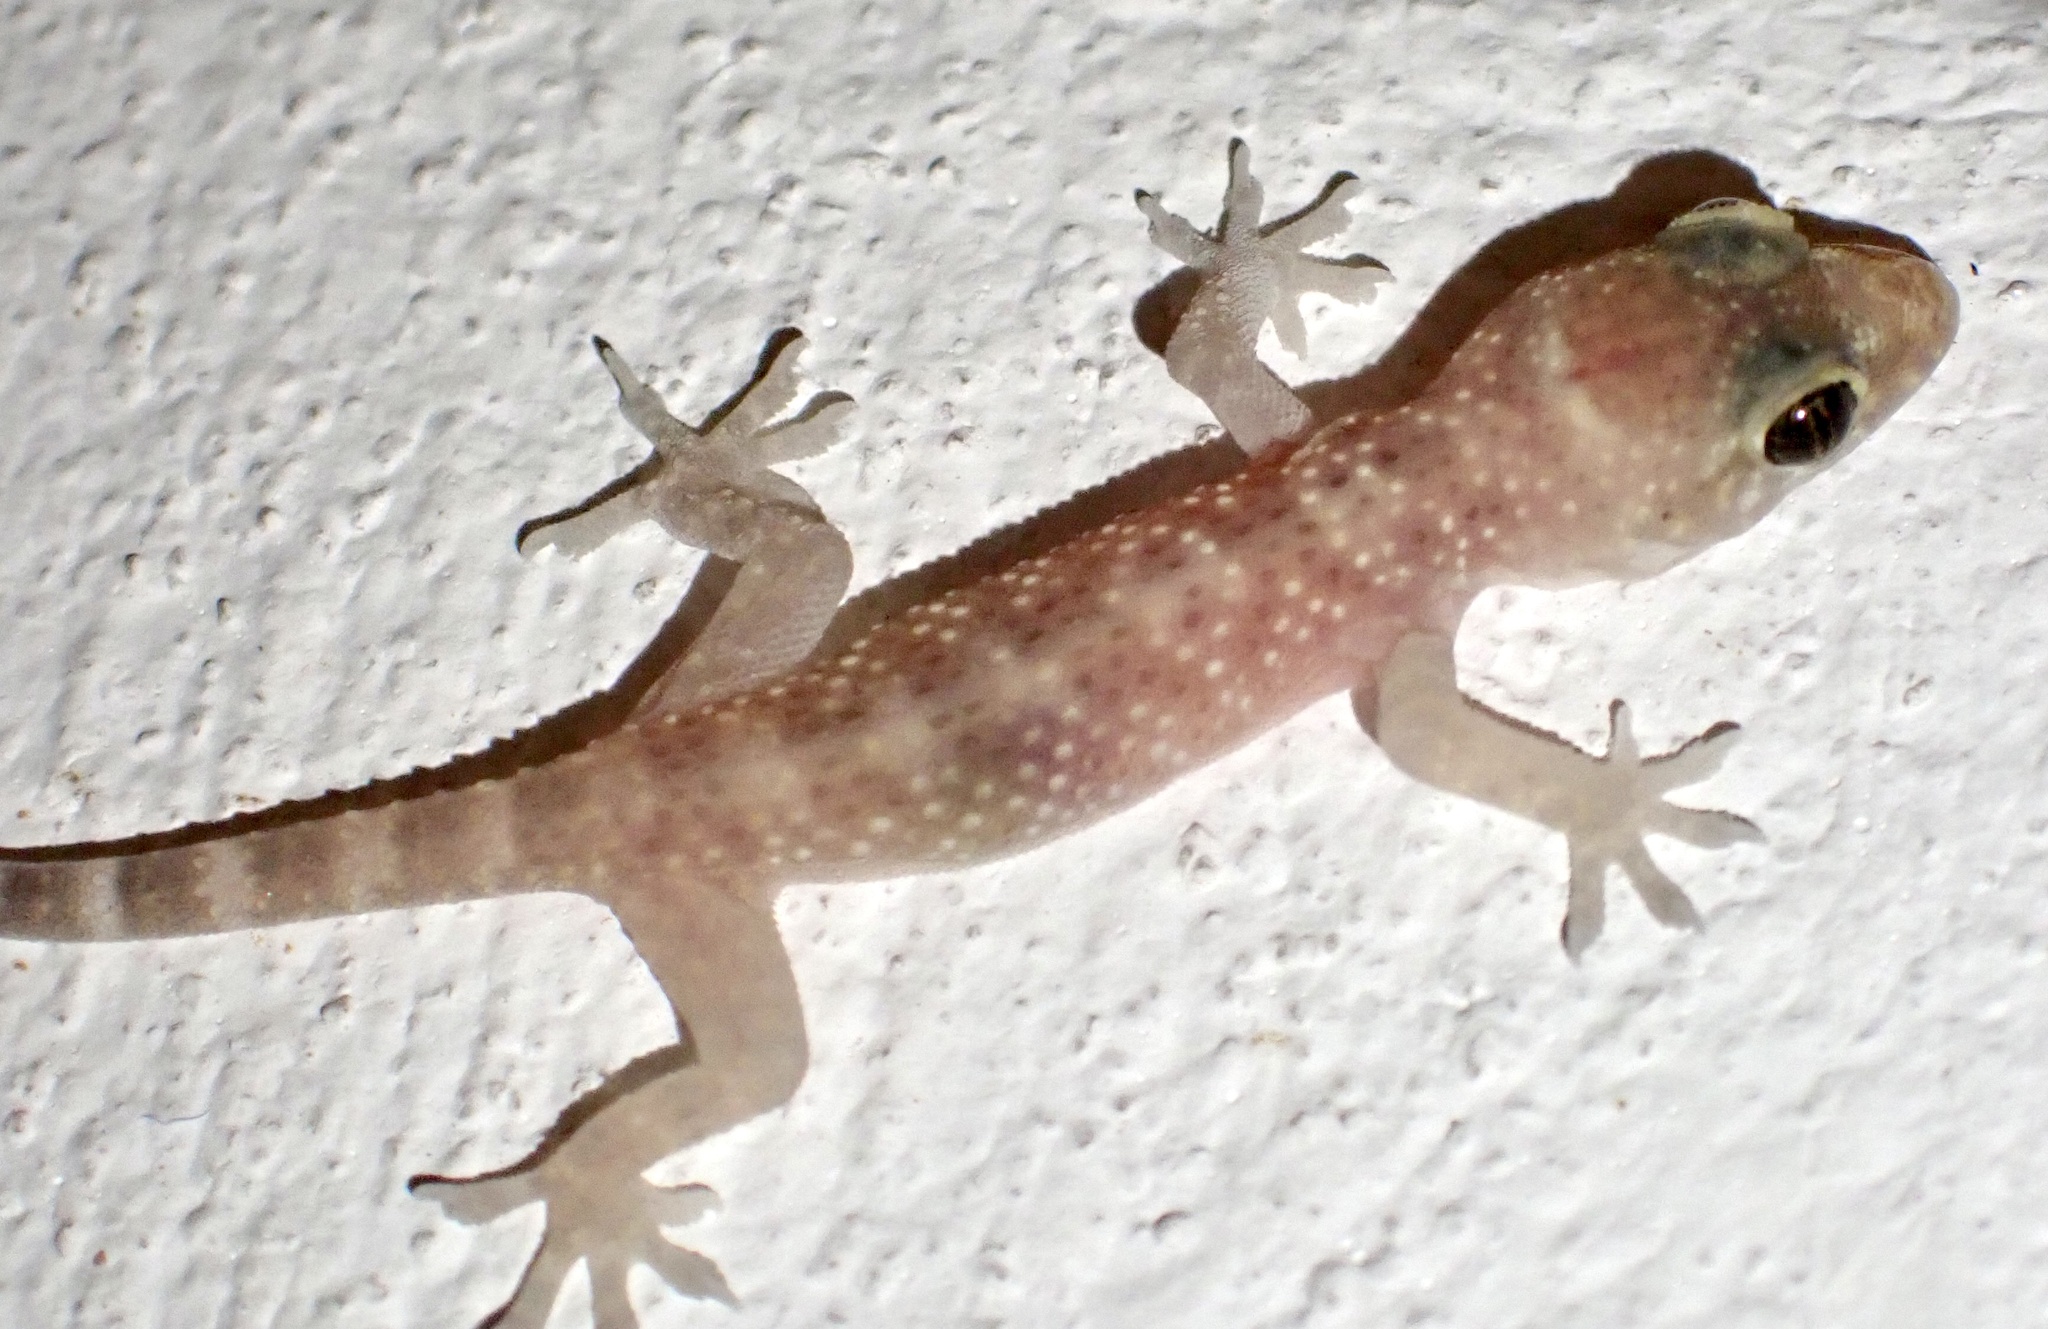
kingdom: Animalia
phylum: Chordata
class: Squamata
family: Gekkonidae
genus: Hemidactylus
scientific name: Hemidactylus turcicus
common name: Turkish gecko
